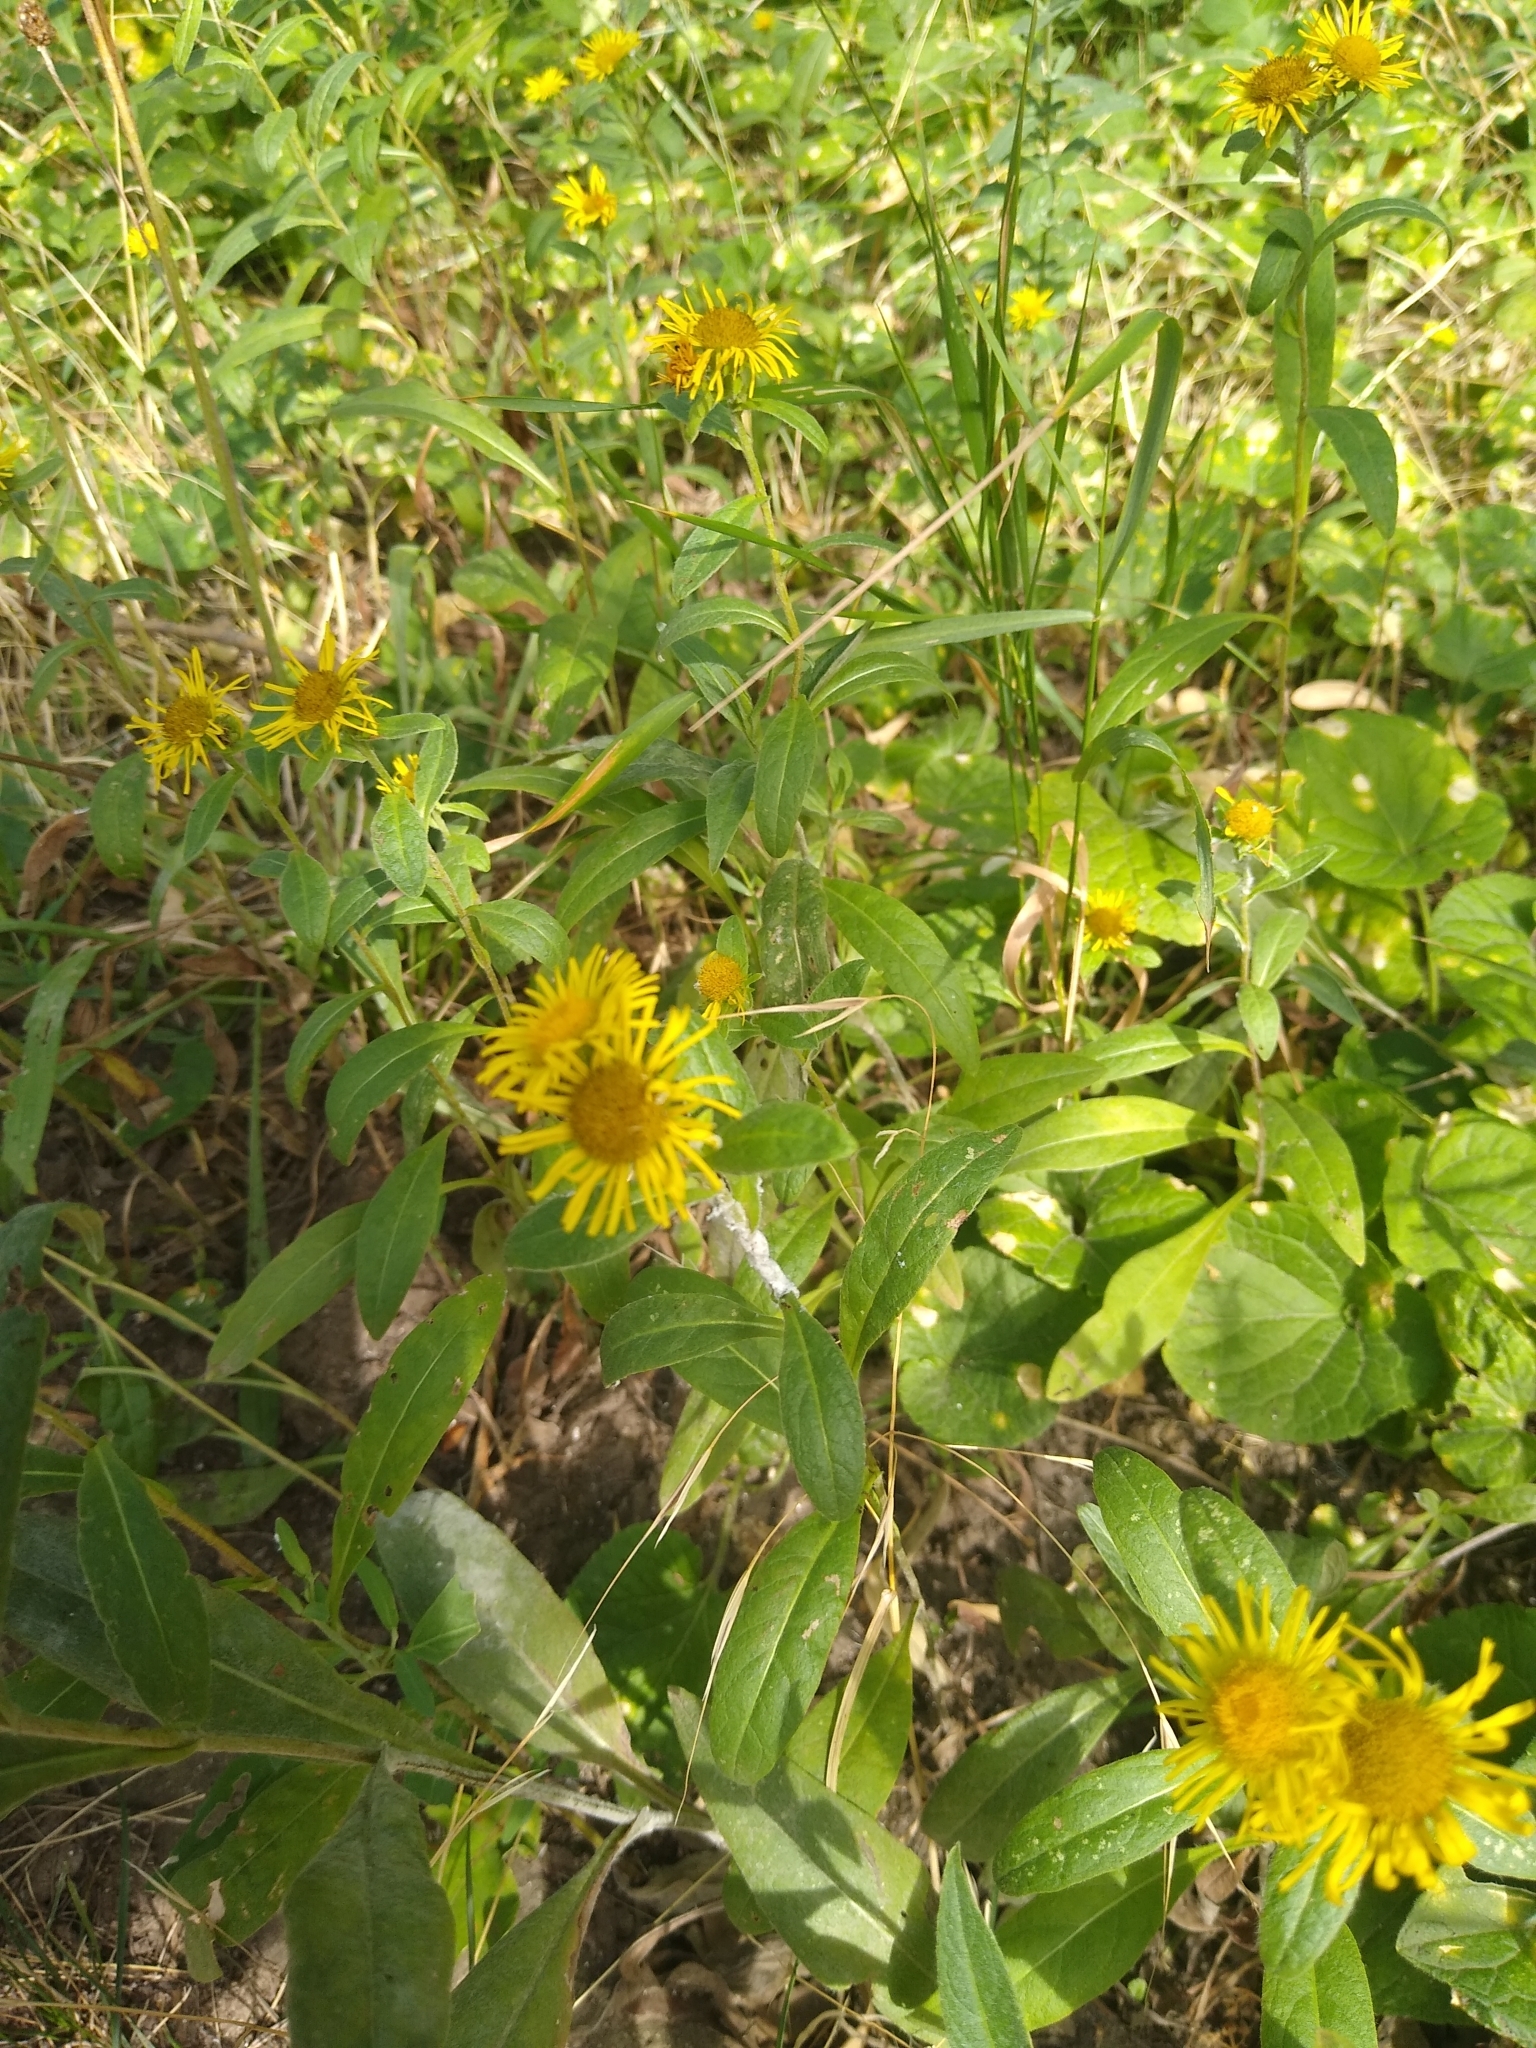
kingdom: Plantae
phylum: Tracheophyta
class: Magnoliopsida
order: Asterales
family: Asteraceae
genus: Pentanema
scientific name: Pentanema britannicum
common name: British elecampane
